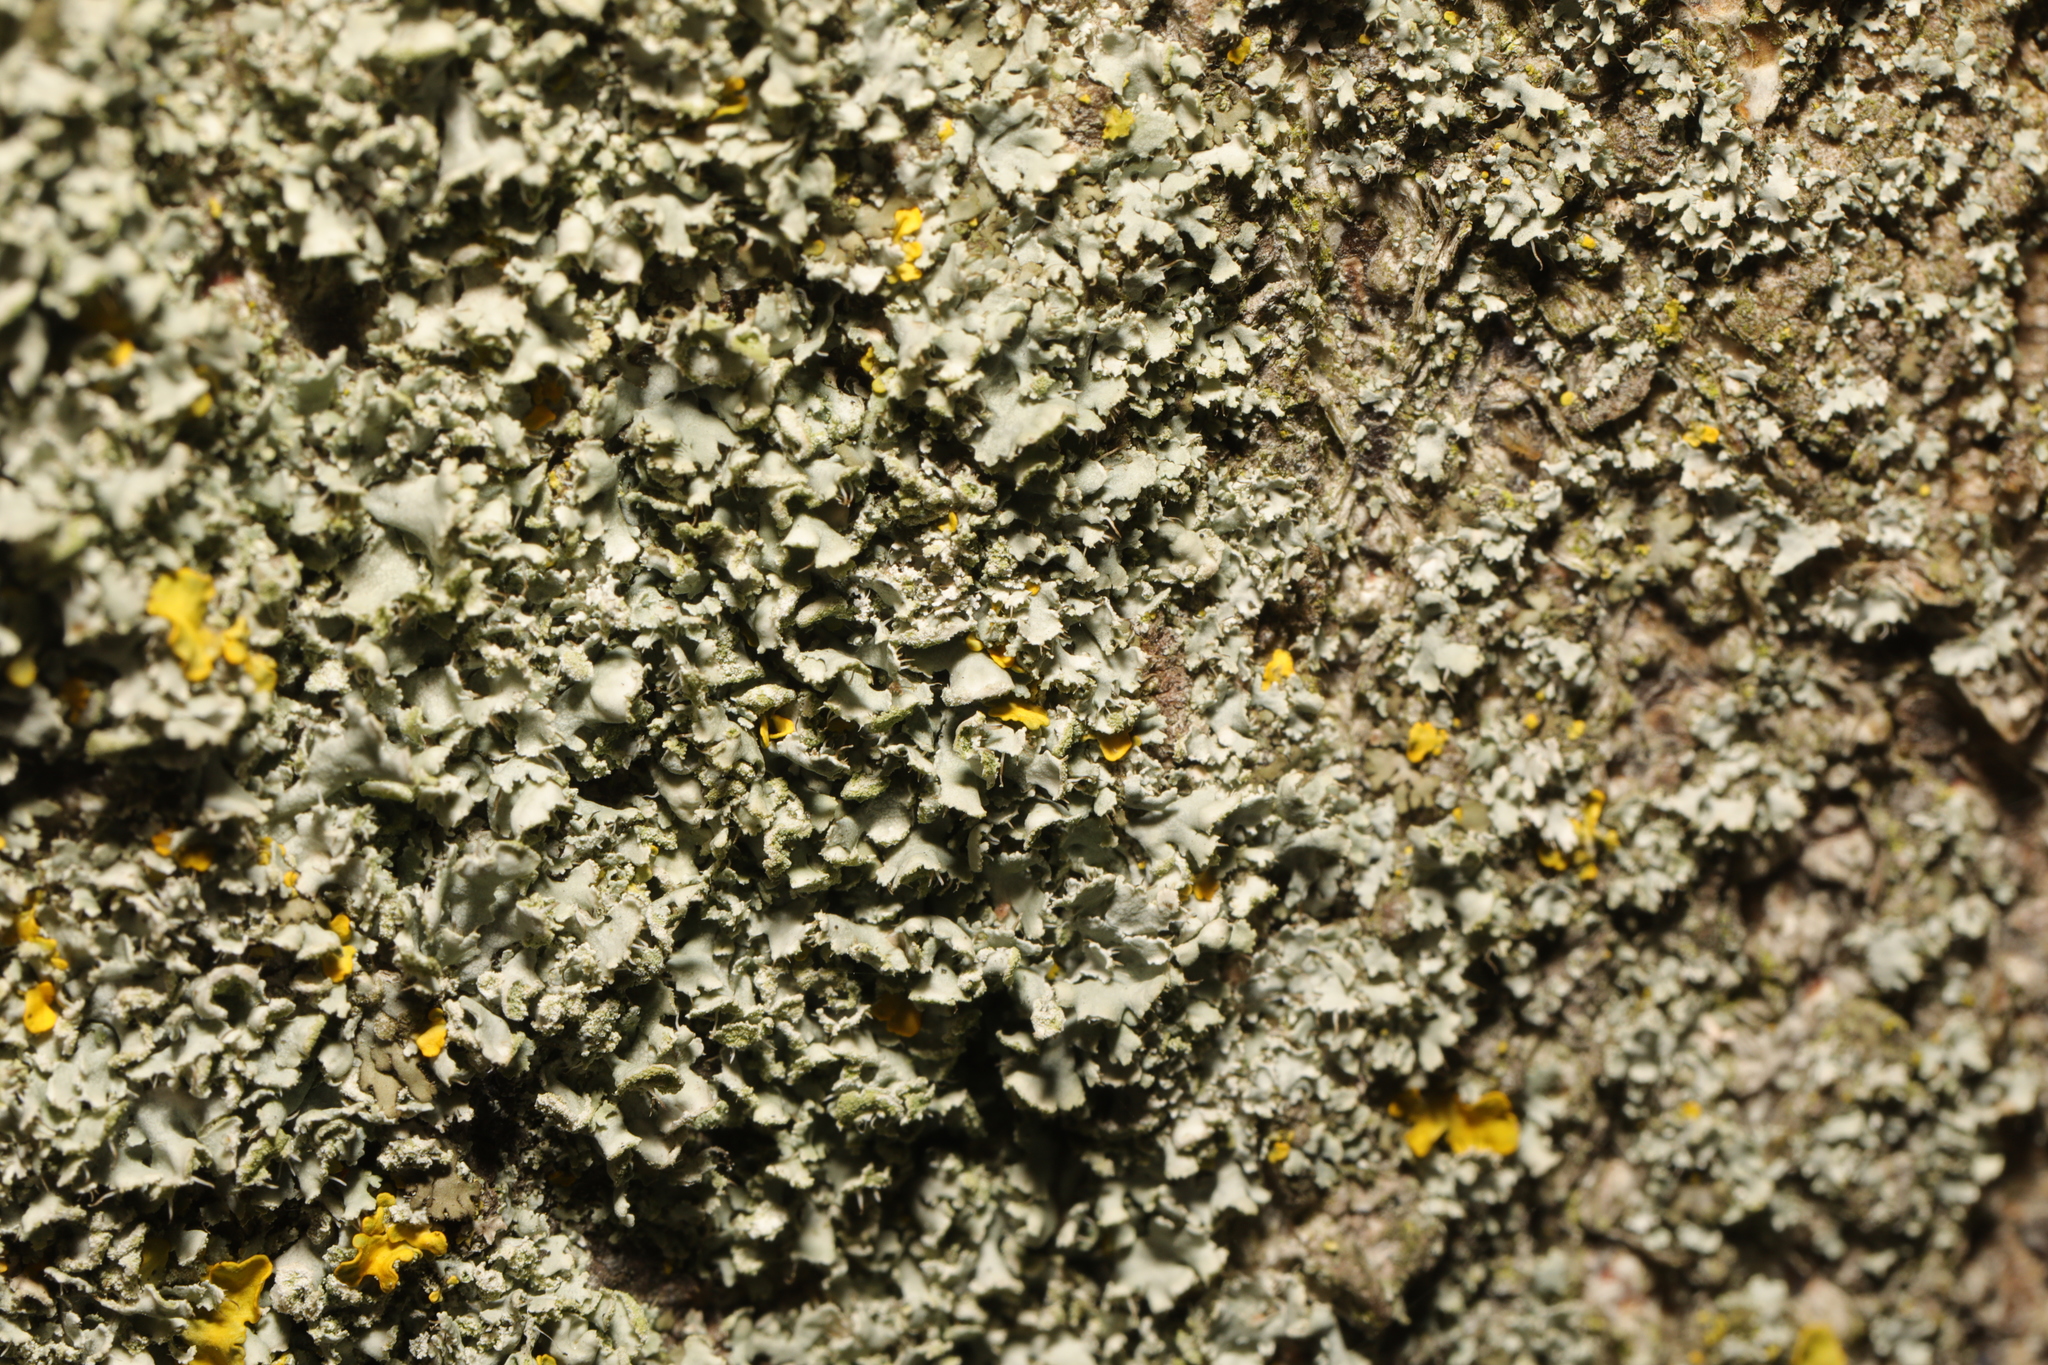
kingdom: Fungi
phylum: Ascomycota
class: Lecanoromycetes
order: Caliciales
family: Physciaceae
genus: Physcia
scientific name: Physcia adscendens
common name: Hooded rosette lichen
